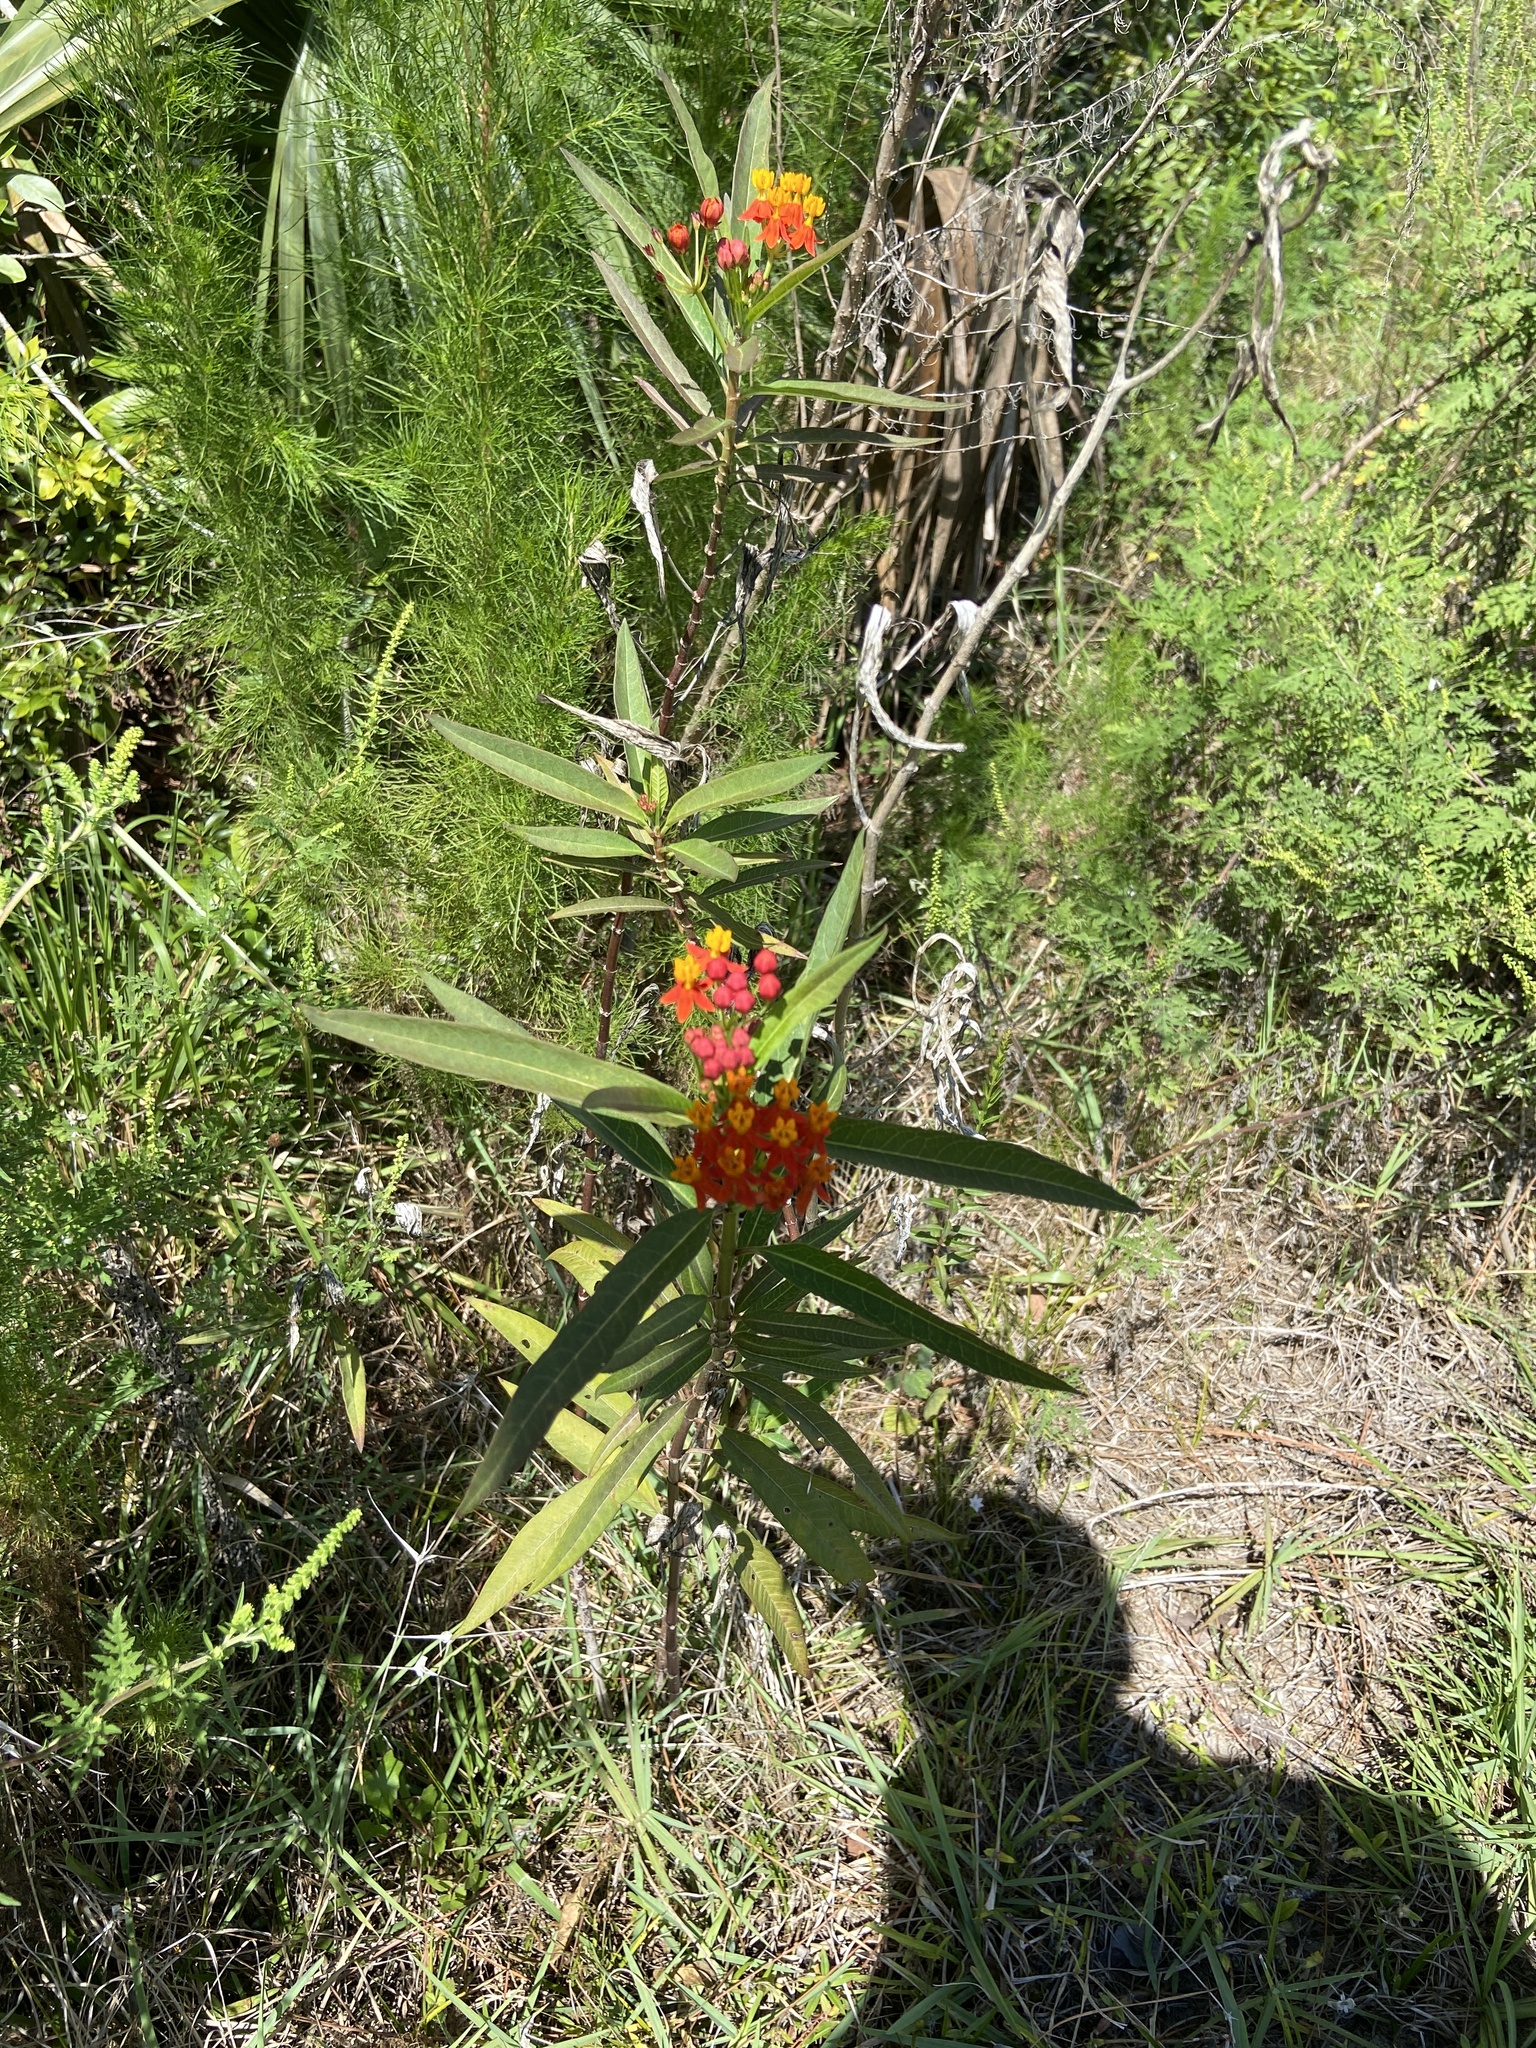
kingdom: Plantae
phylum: Tracheophyta
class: Magnoliopsida
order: Gentianales
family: Apocynaceae
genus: Asclepias
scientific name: Asclepias curassavica
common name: Bloodflower
